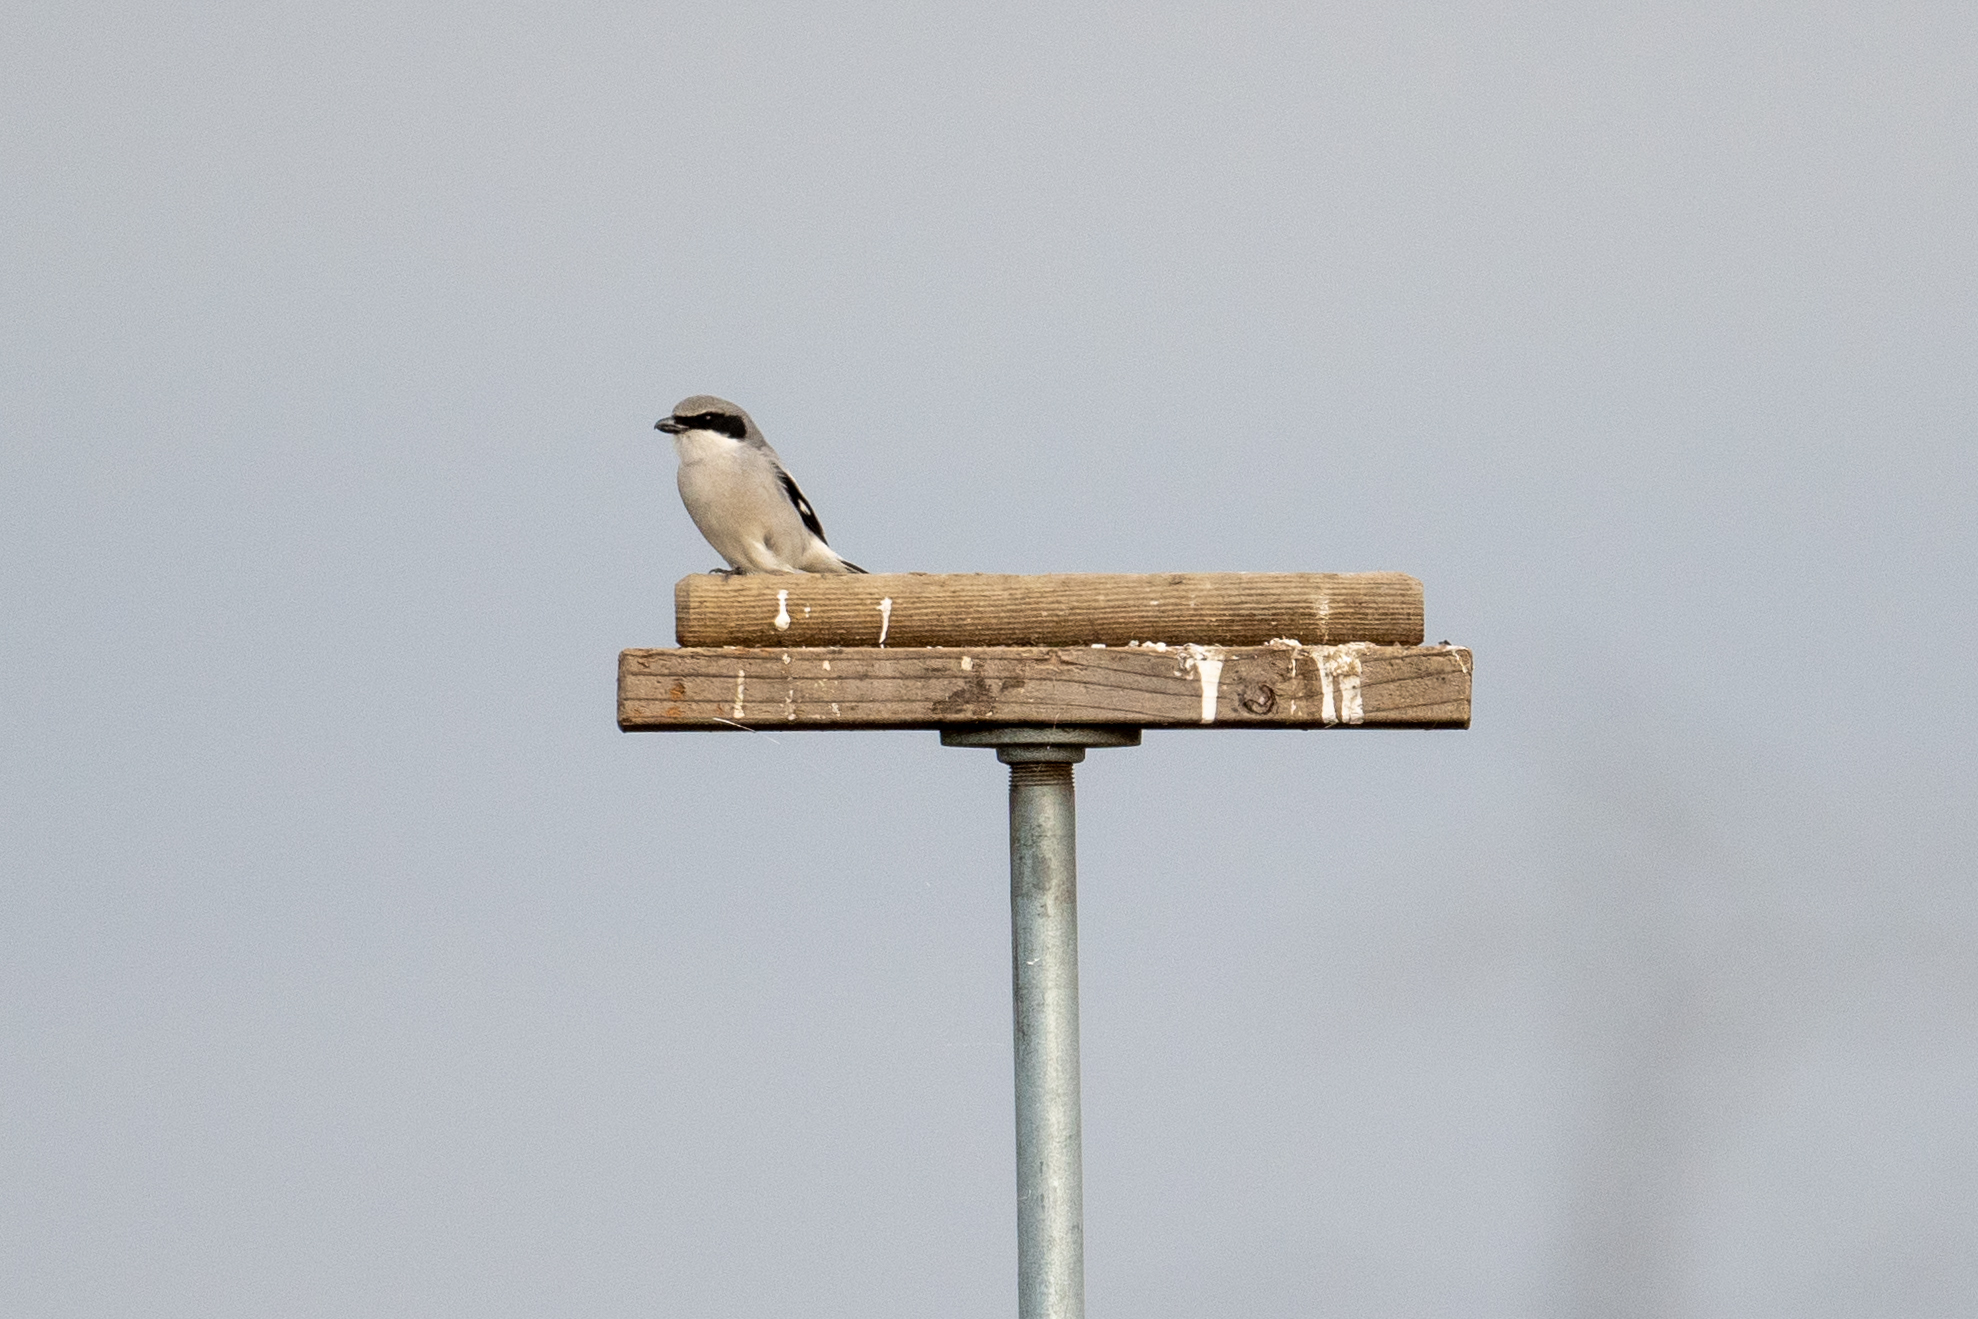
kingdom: Animalia
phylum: Chordata
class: Aves
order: Passeriformes
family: Laniidae
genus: Lanius
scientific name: Lanius ludovicianus
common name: Loggerhead shrike
